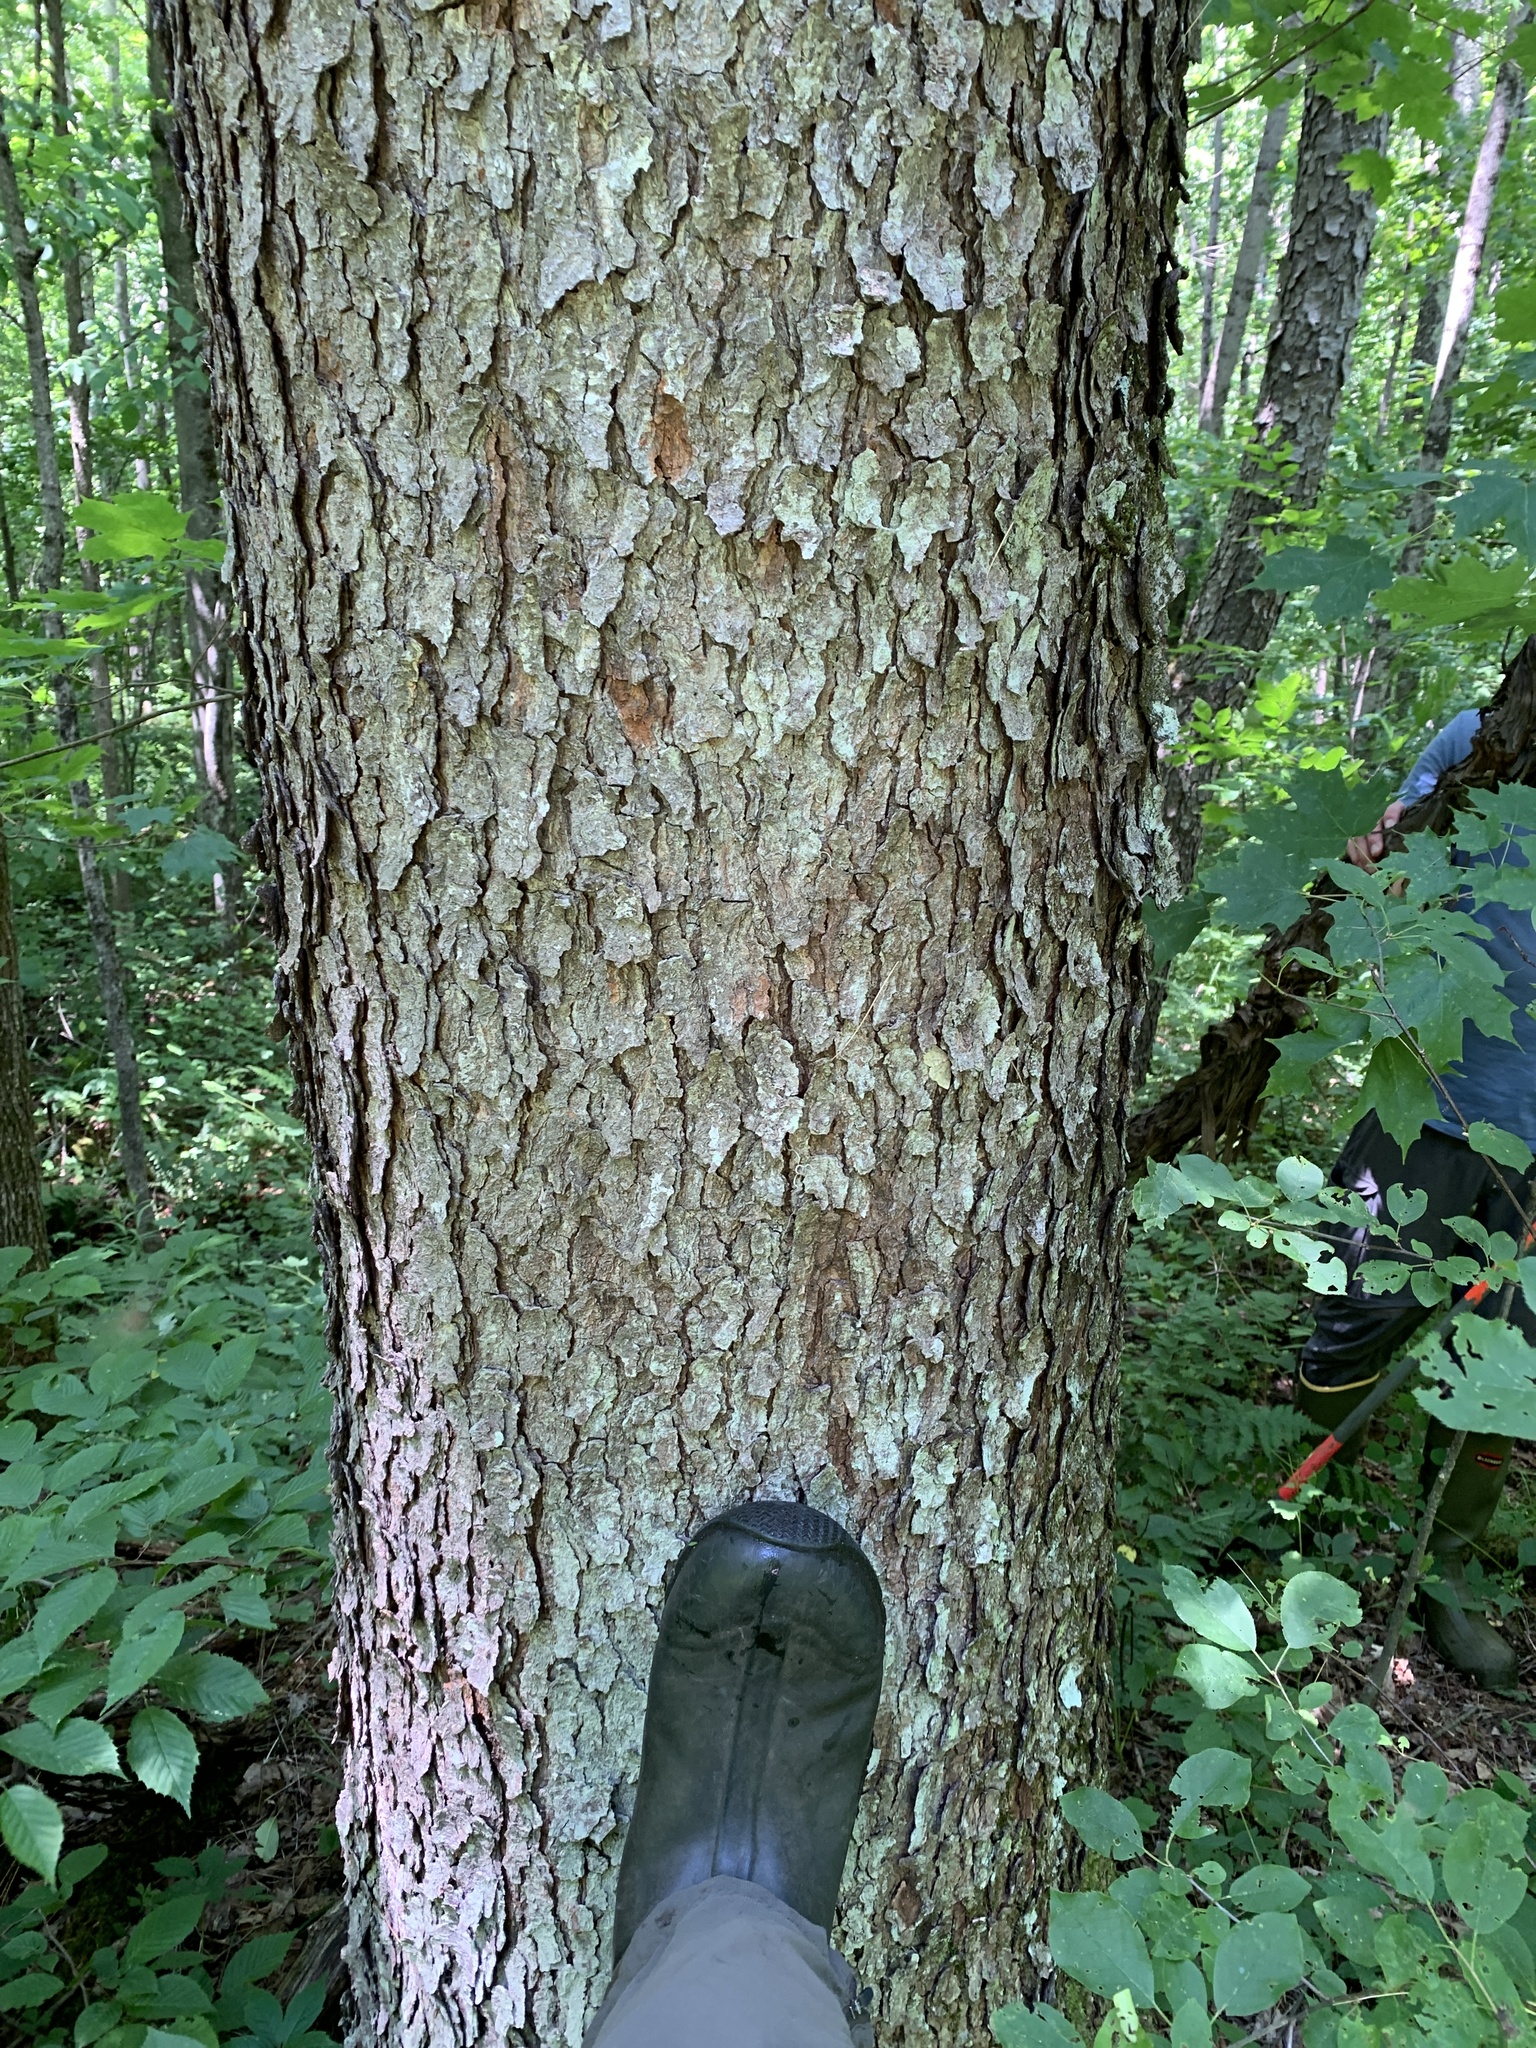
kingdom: Plantae
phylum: Tracheophyta
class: Magnoliopsida
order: Rosales
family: Rosaceae
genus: Prunus
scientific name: Prunus serotina
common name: Black cherry
